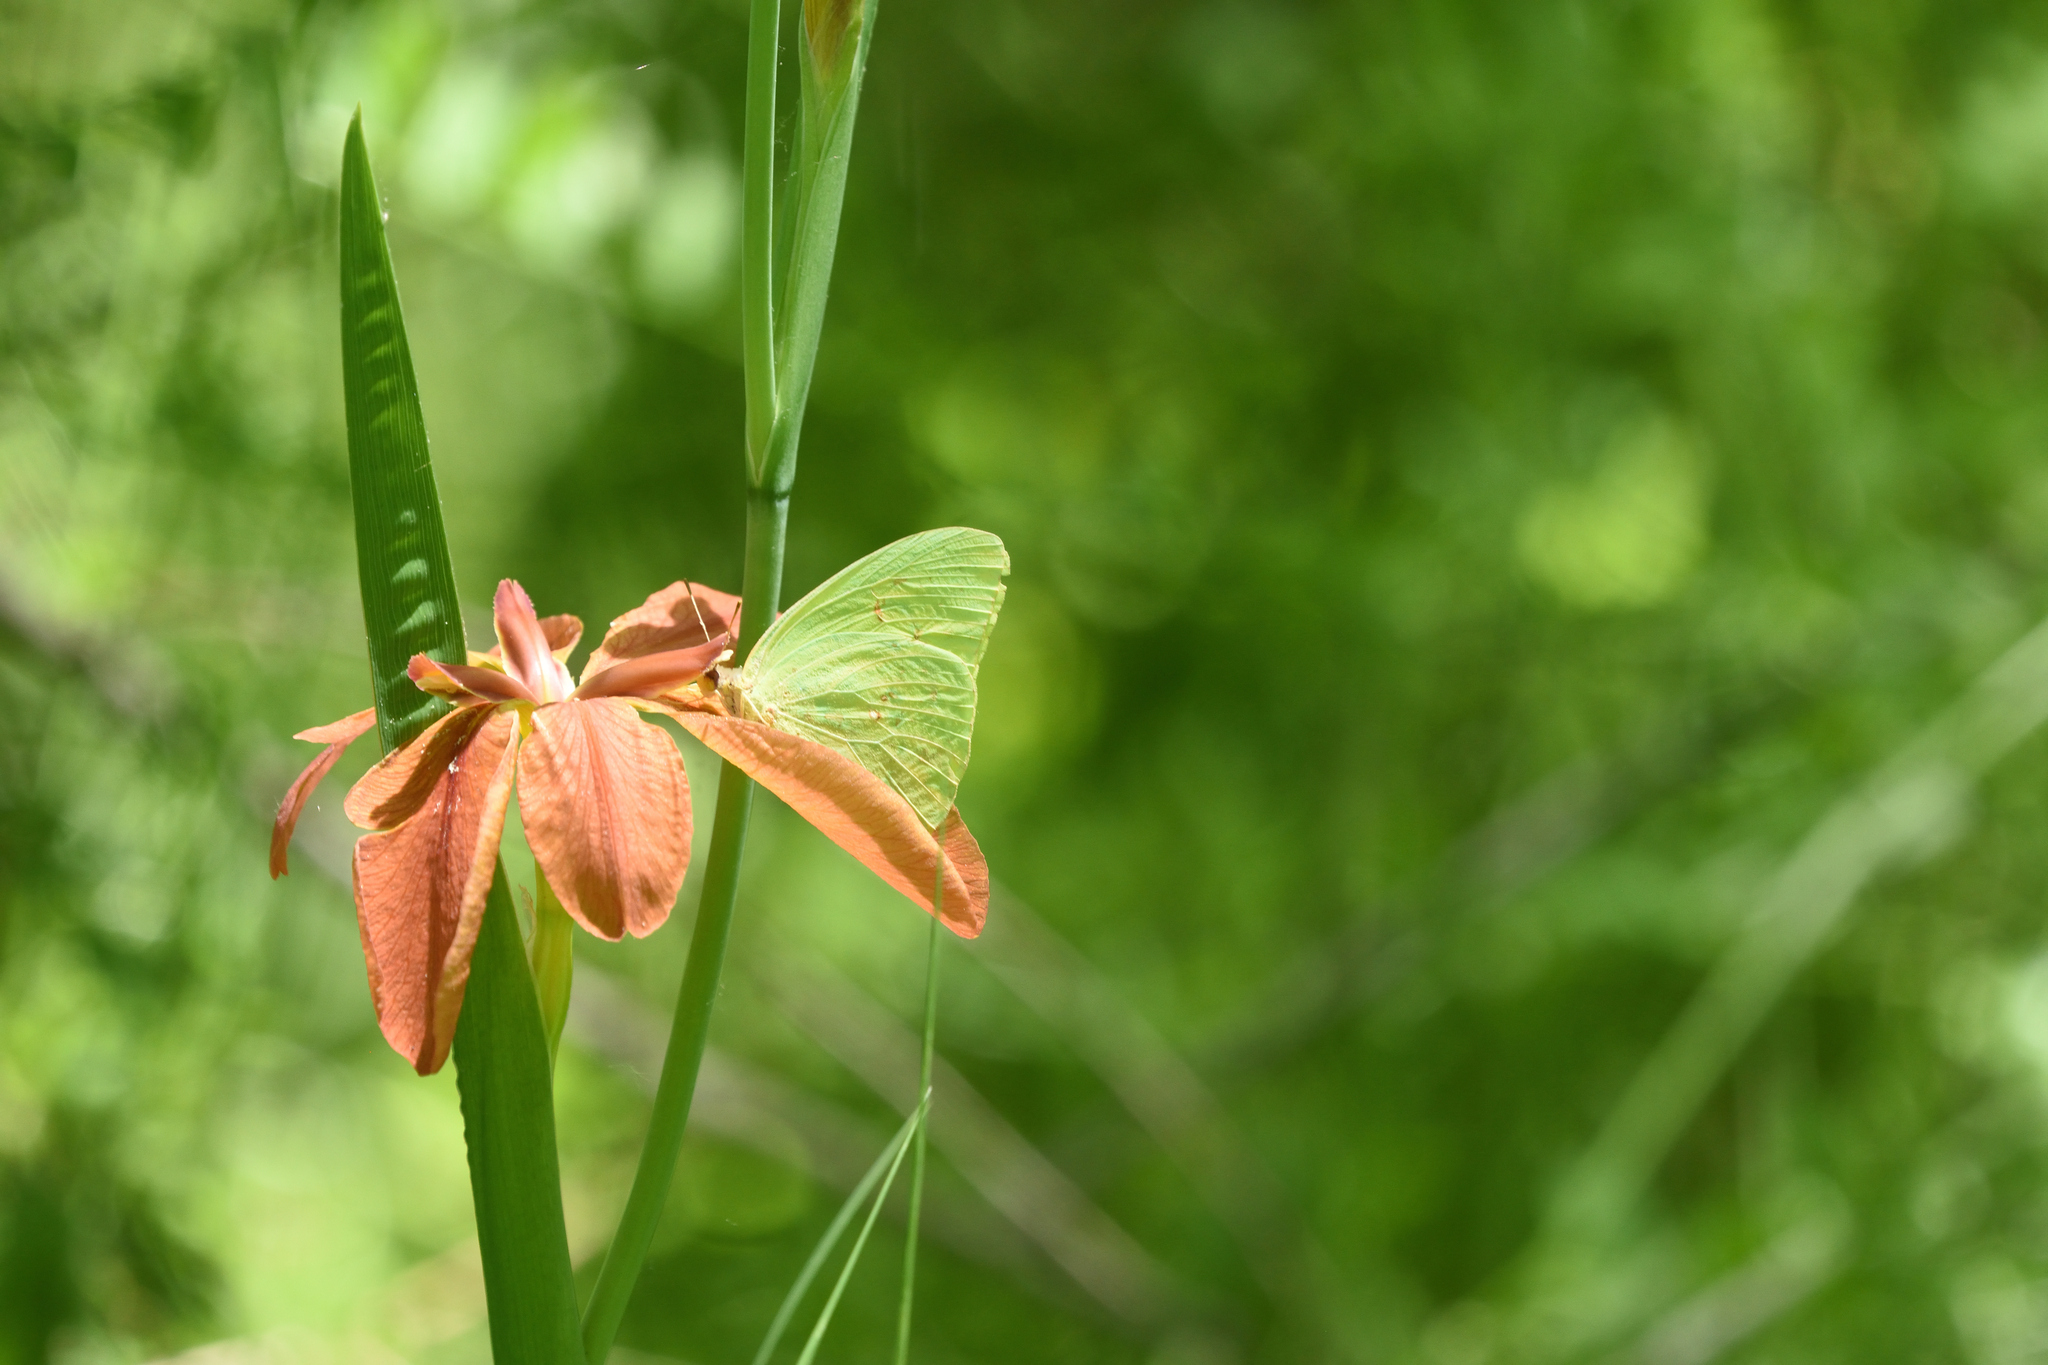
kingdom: Animalia
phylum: Arthropoda
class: Insecta
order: Lepidoptera
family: Pieridae
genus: Phoebis
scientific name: Phoebis sennae
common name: Cloudless sulphur
